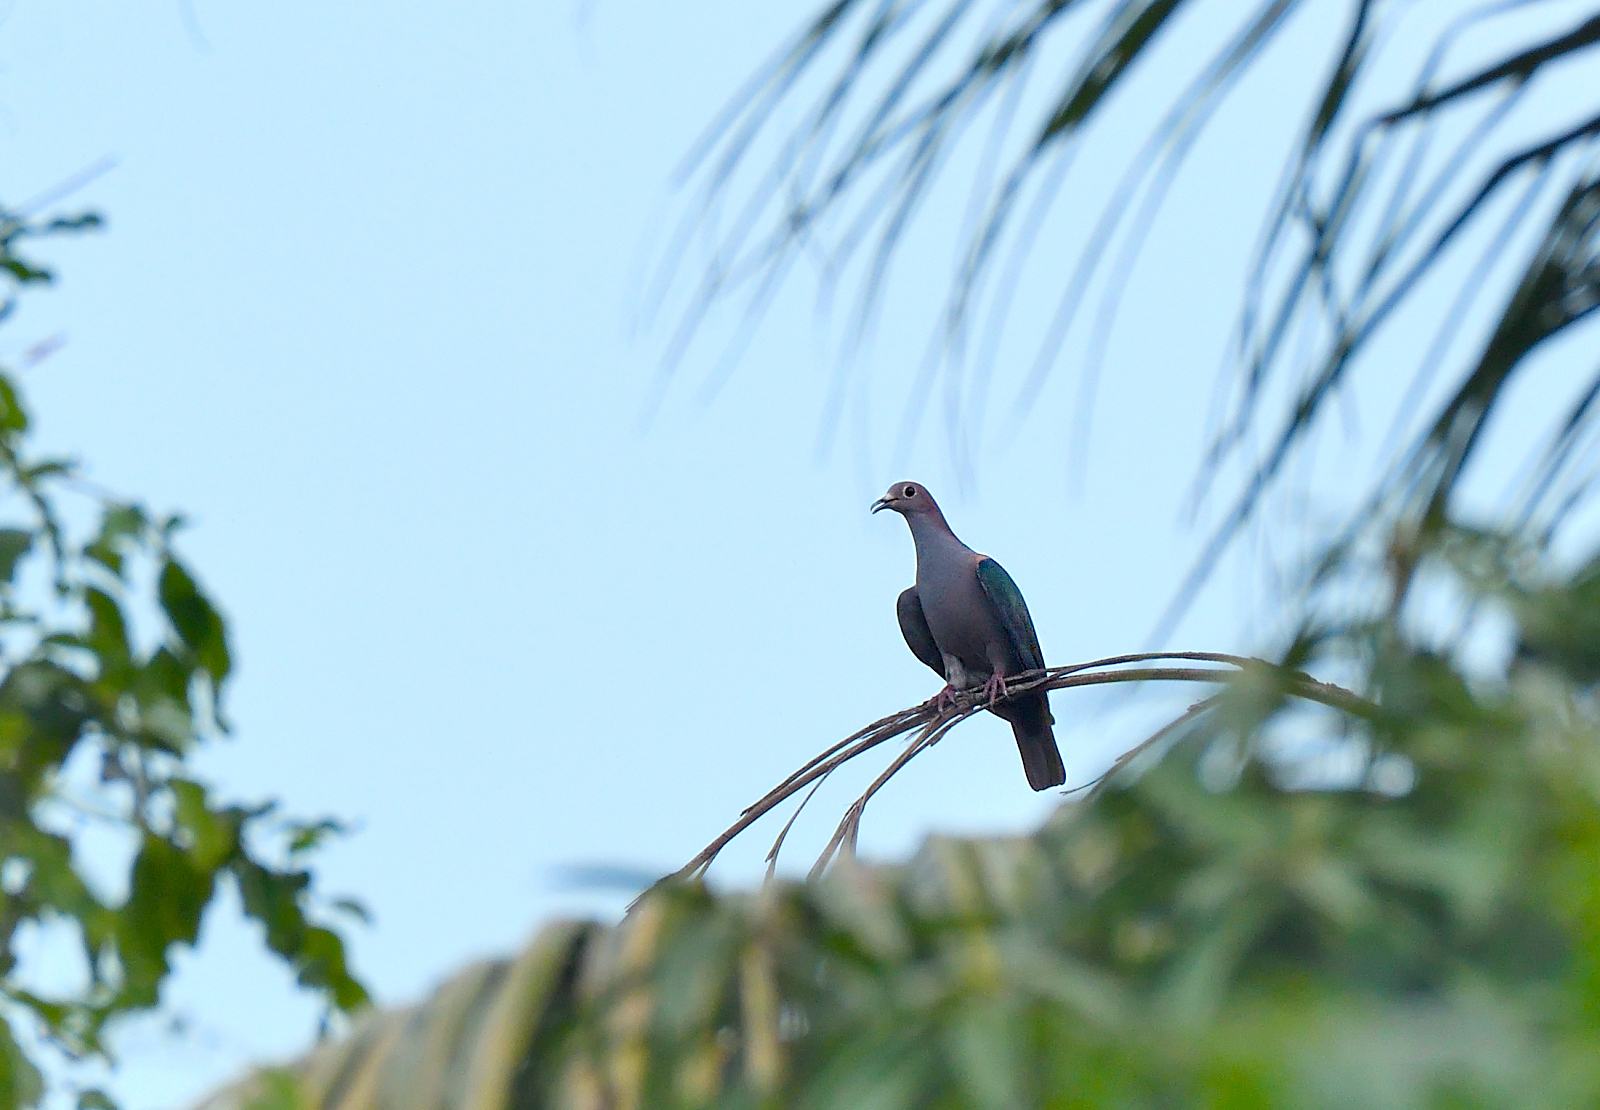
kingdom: Animalia
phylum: Chordata
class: Aves
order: Columbiformes
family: Columbidae
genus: Ducula
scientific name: Ducula aenea
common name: Green imperial pigeon
